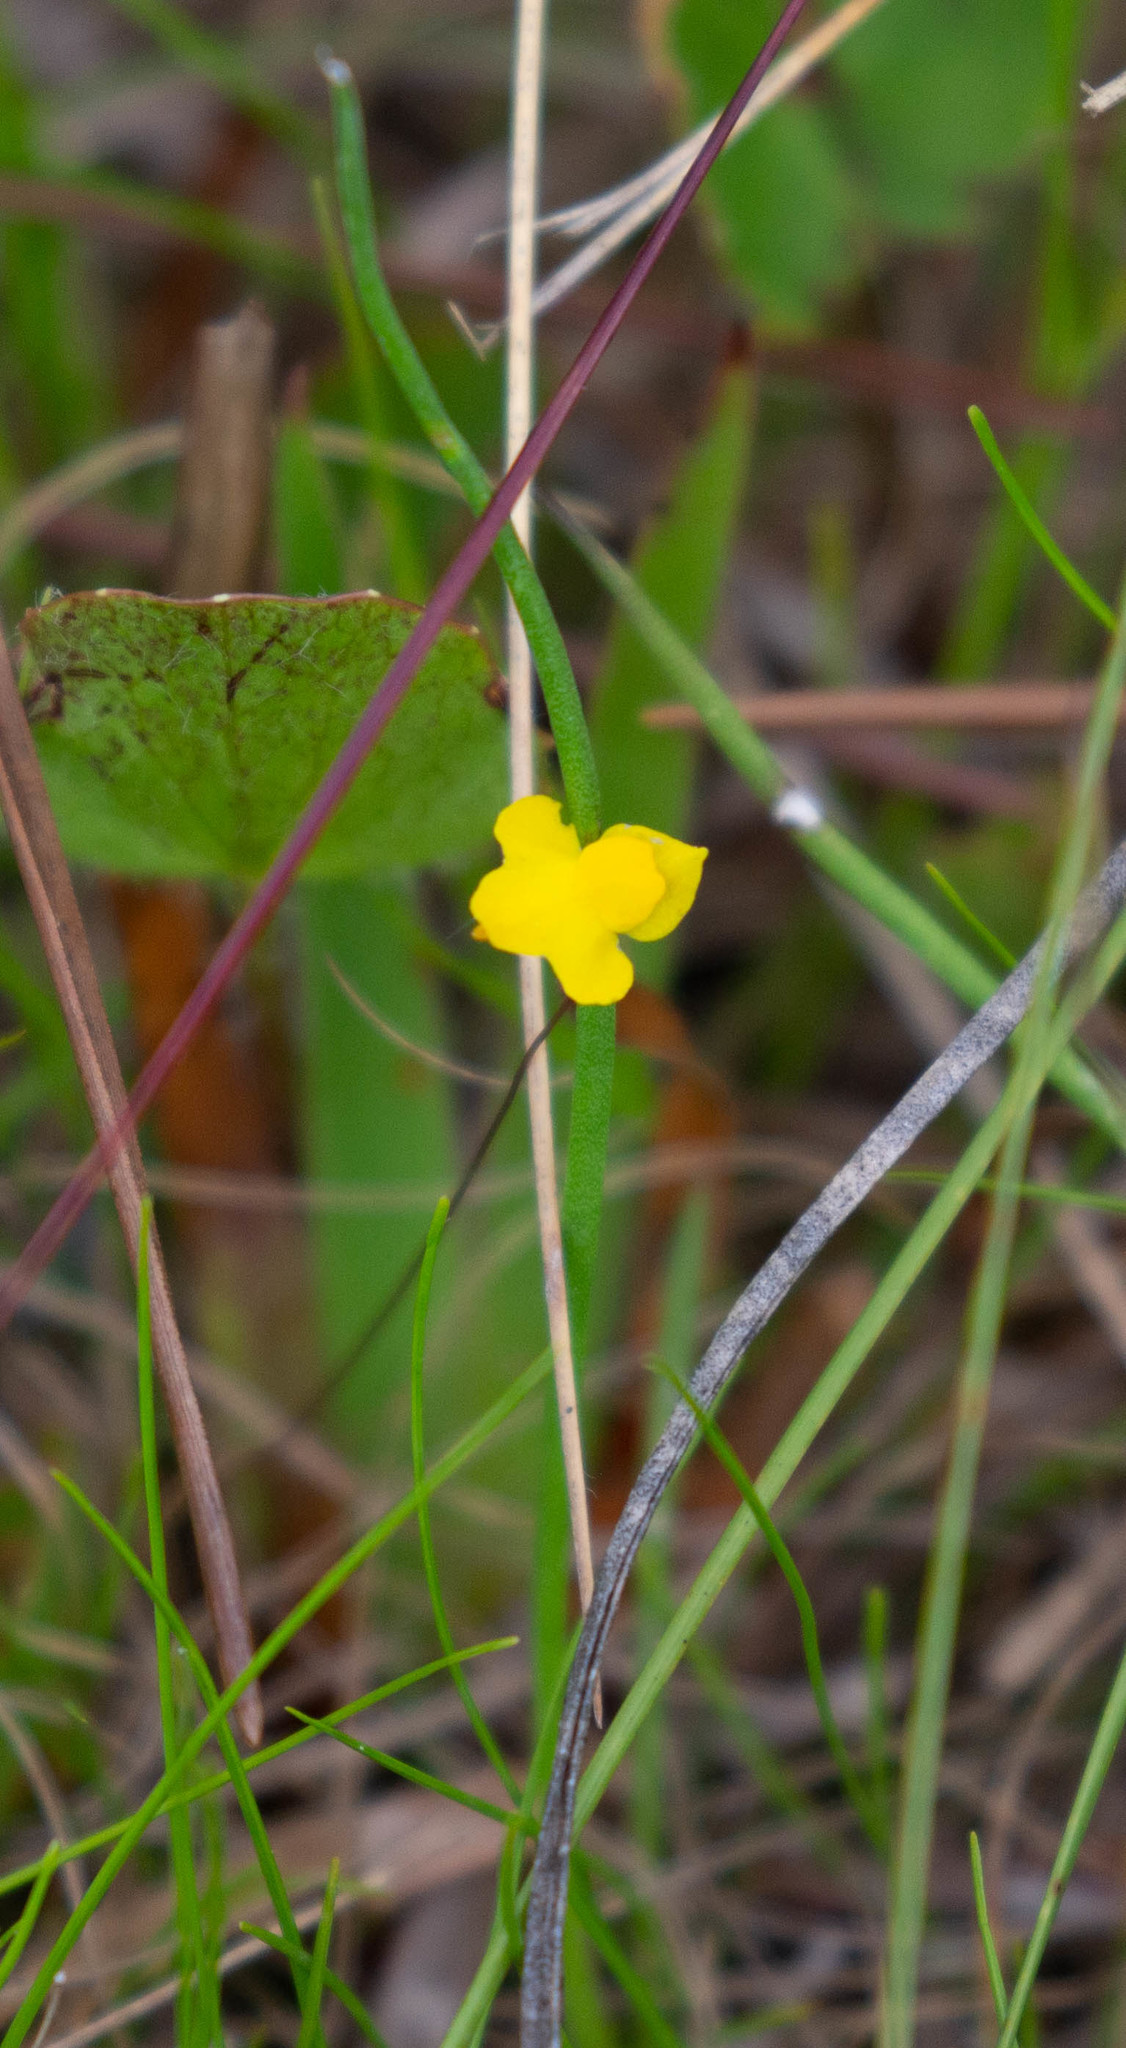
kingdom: Plantae
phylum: Tracheophyta
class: Magnoliopsida
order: Lamiales
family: Lentibulariaceae
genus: Utricularia
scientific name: Utricularia subulata
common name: Tiny bladderwort
